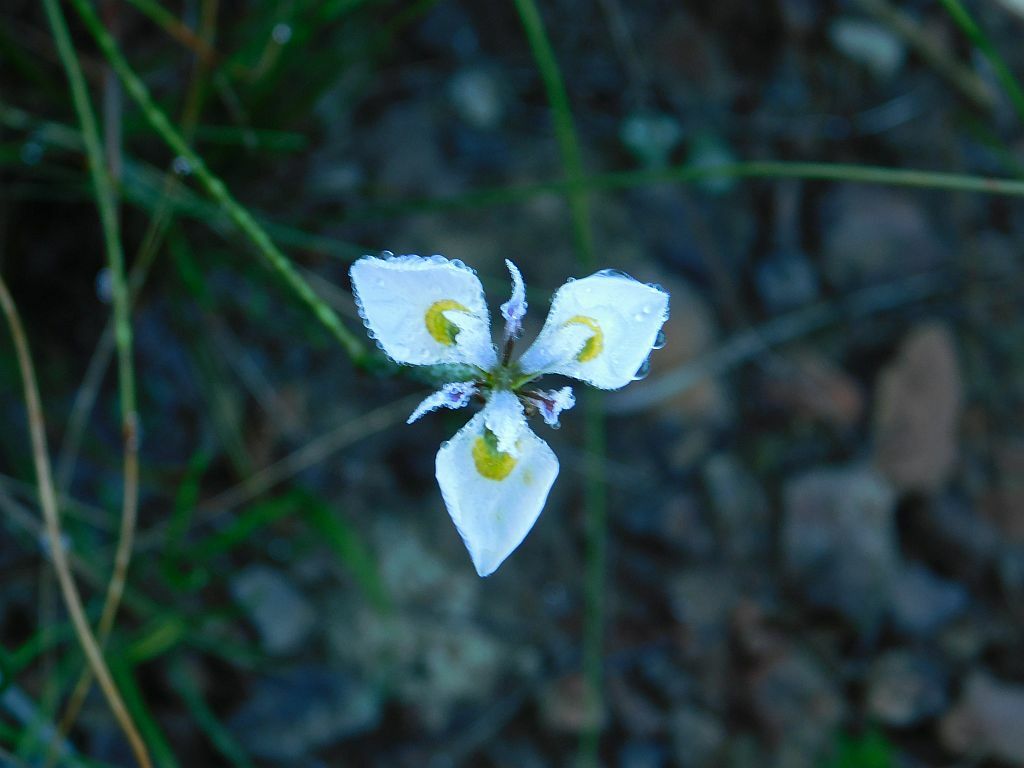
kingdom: Plantae
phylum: Tracheophyta
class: Liliopsida
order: Asparagales
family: Iridaceae
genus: Moraea
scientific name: Moraea fergusoniae
